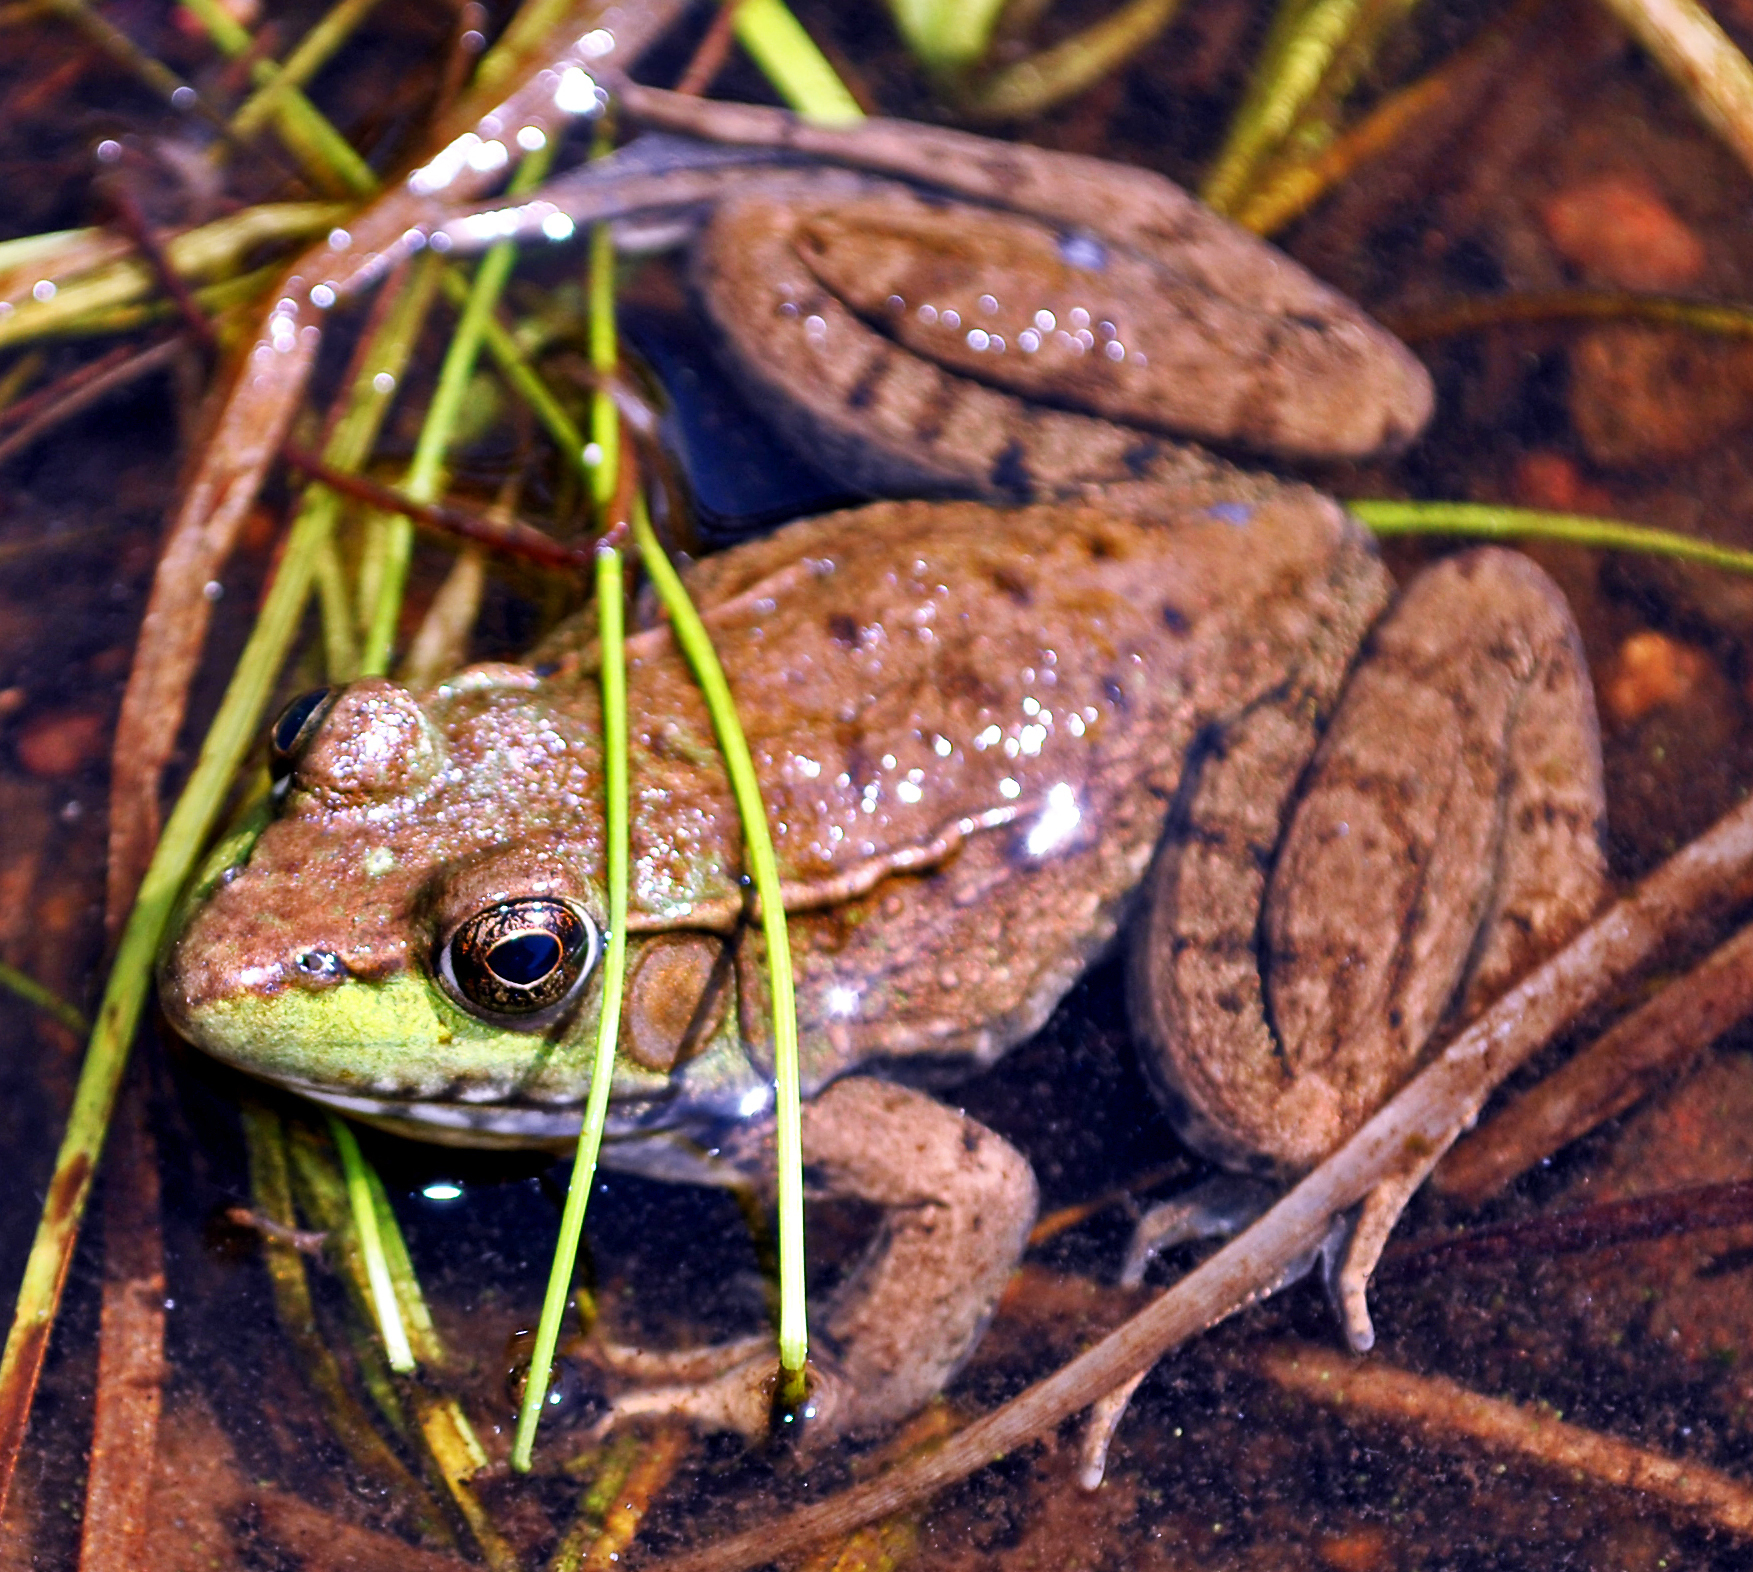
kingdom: Animalia
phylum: Chordata
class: Amphibia
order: Anura
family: Ranidae
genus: Lithobates
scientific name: Lithobates clamitans
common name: Green frog
